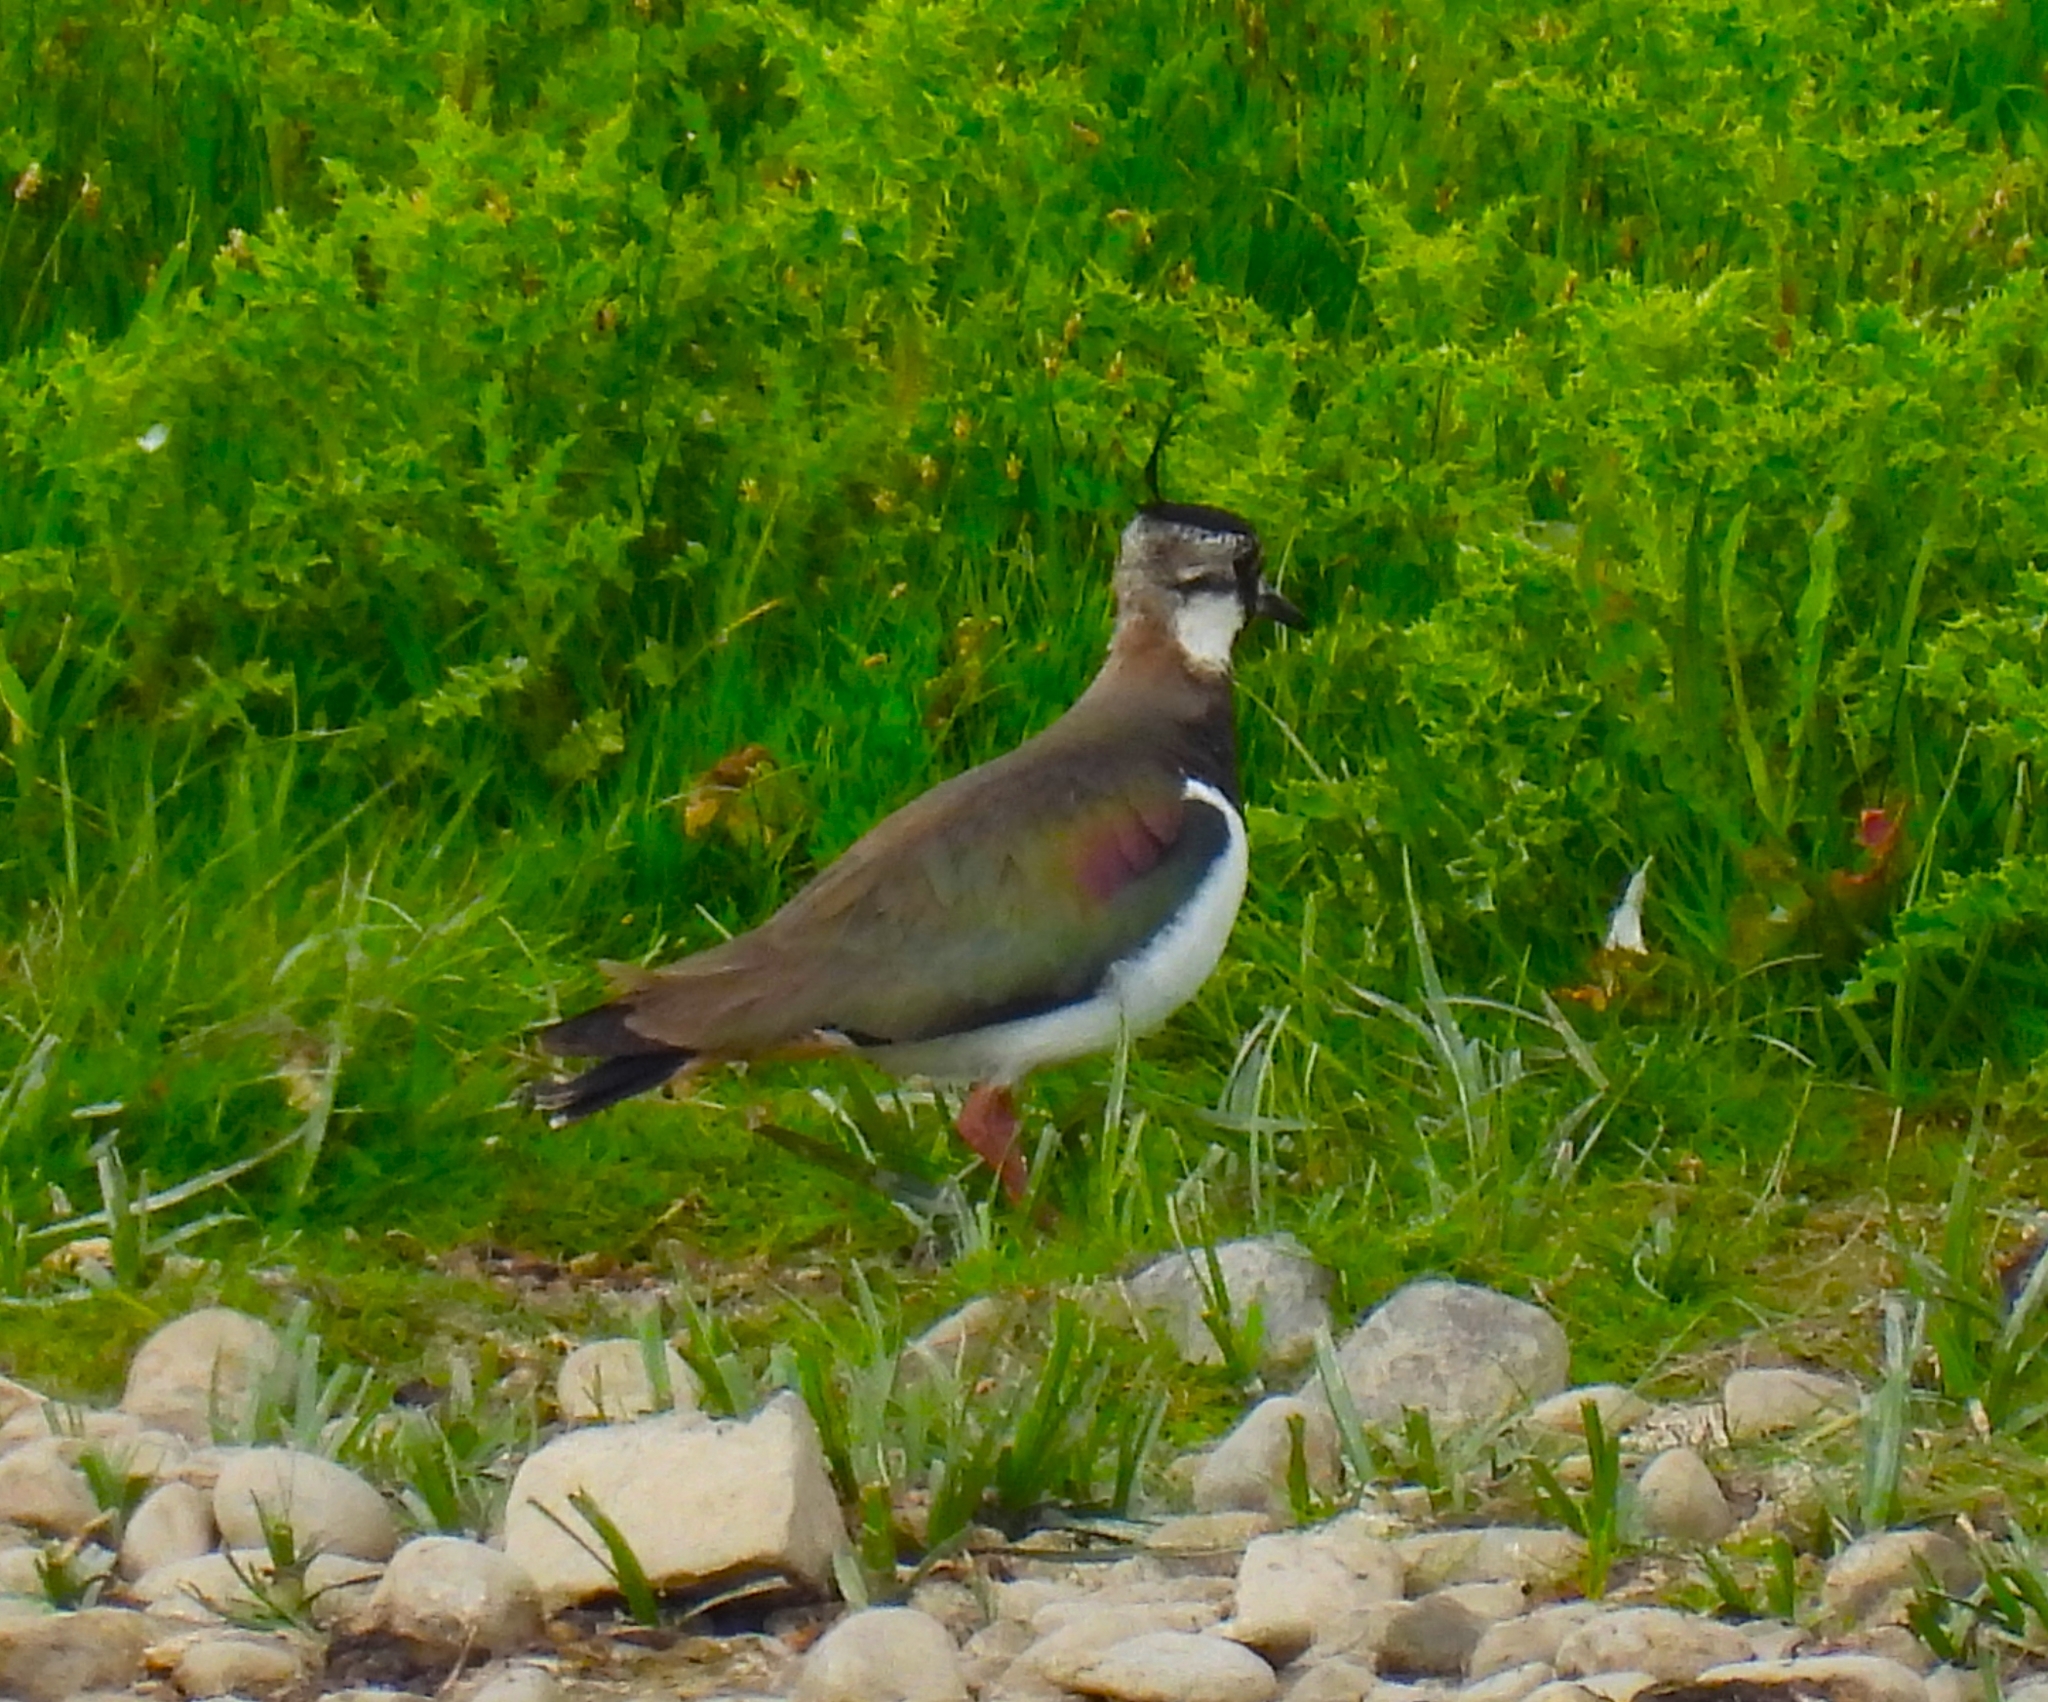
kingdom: Animalia
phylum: Chordata
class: Aves
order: Charadriiformes
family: Charadriidae
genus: Vanellus
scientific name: Vanellus vanellus
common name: Northern lapwing
